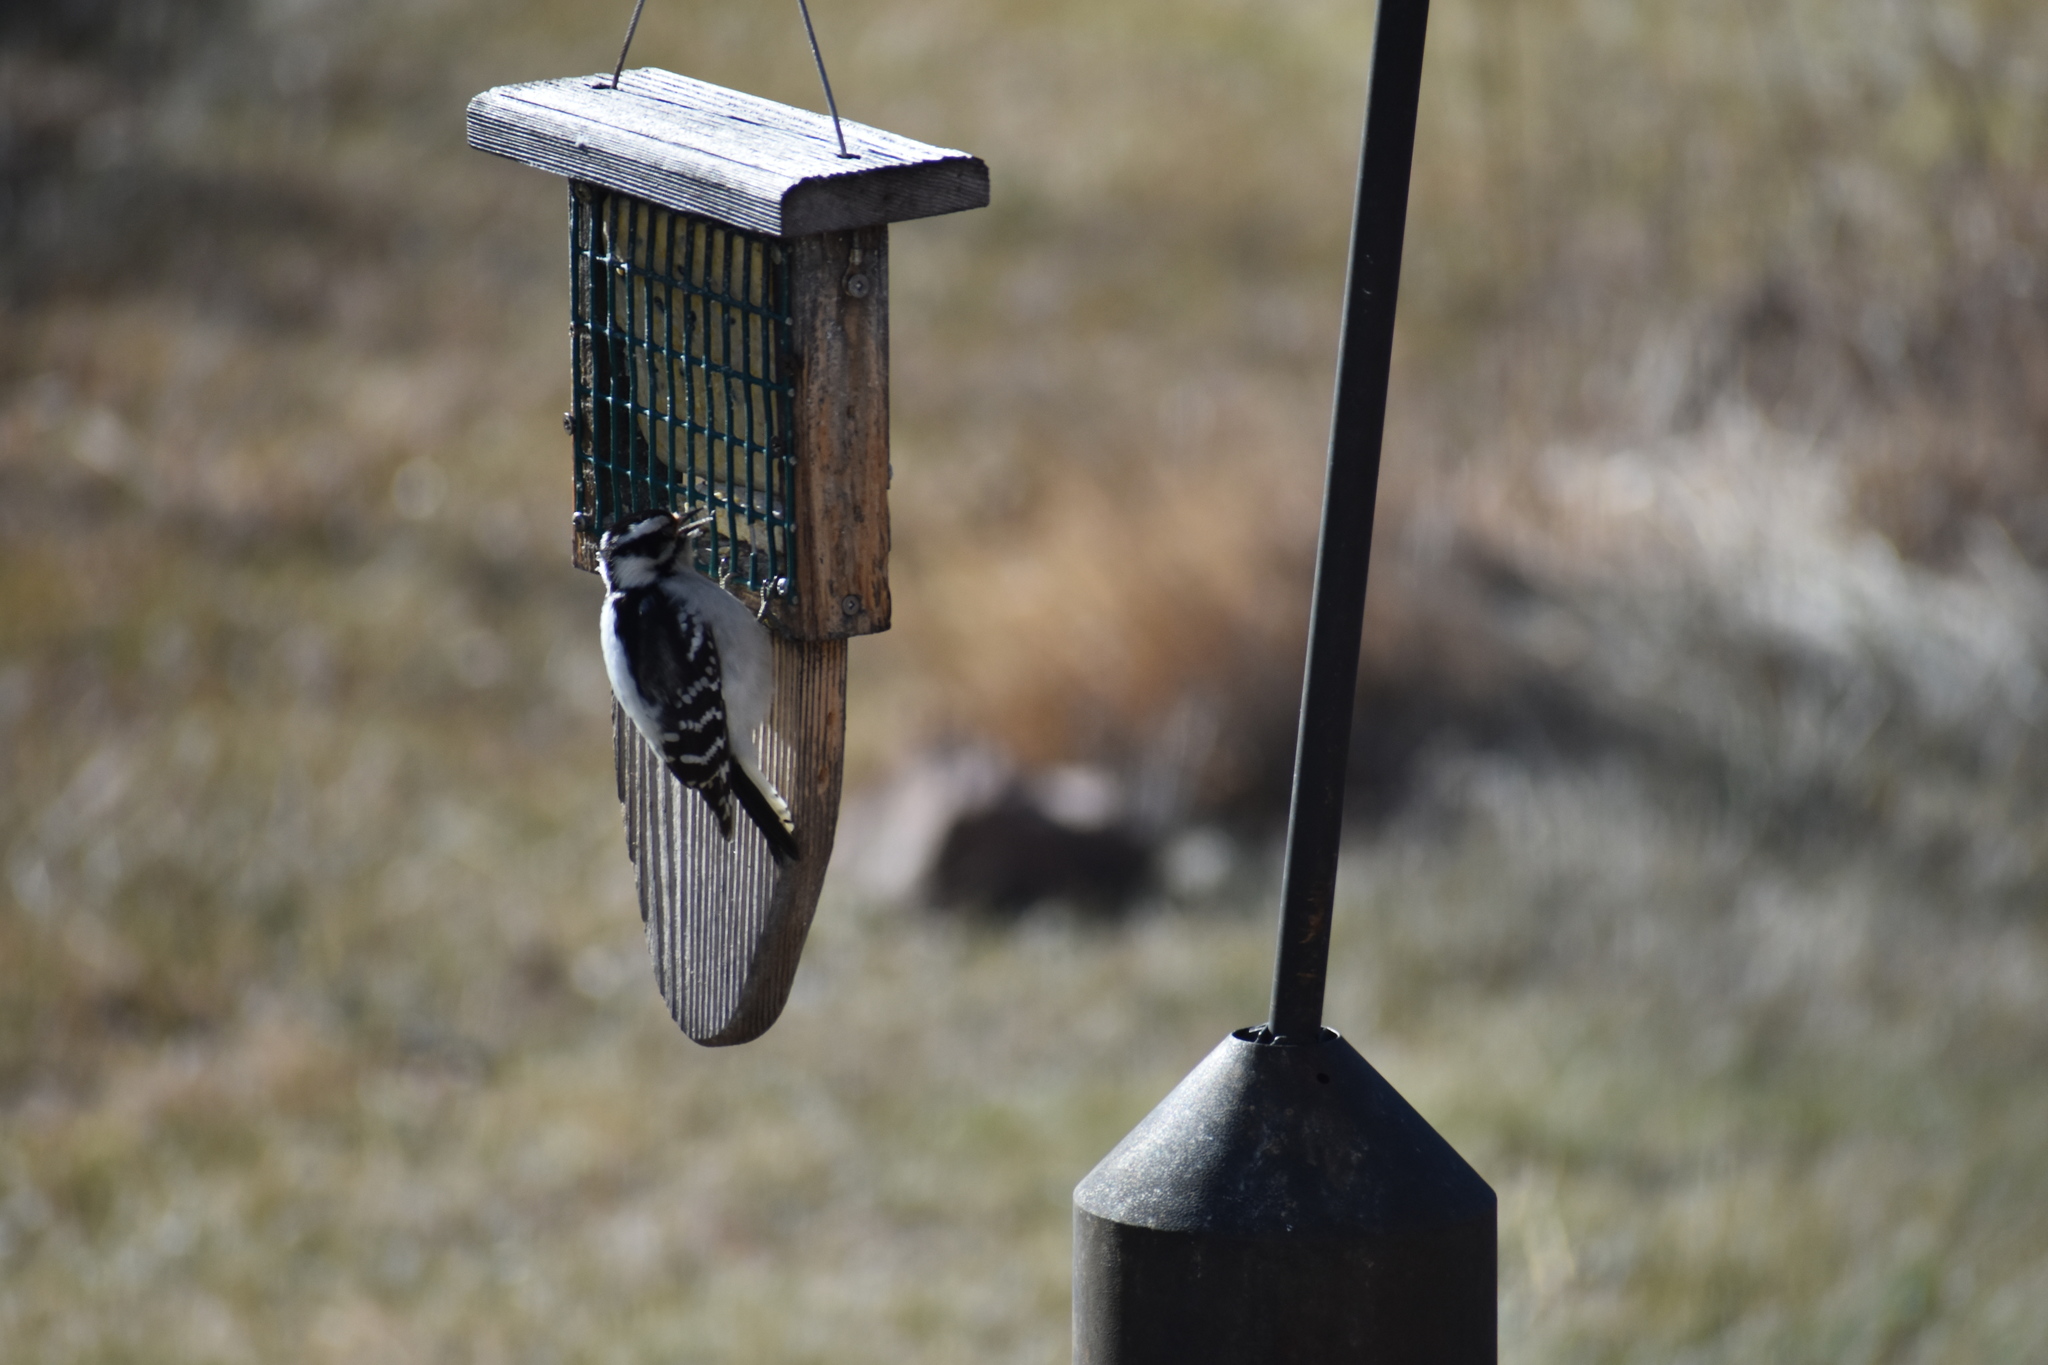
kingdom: Animalia
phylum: Chordata
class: Aves
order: Piciformes
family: Picidae
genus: Dryobates
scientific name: Dryobates pubescens
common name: Downy woodpecker
